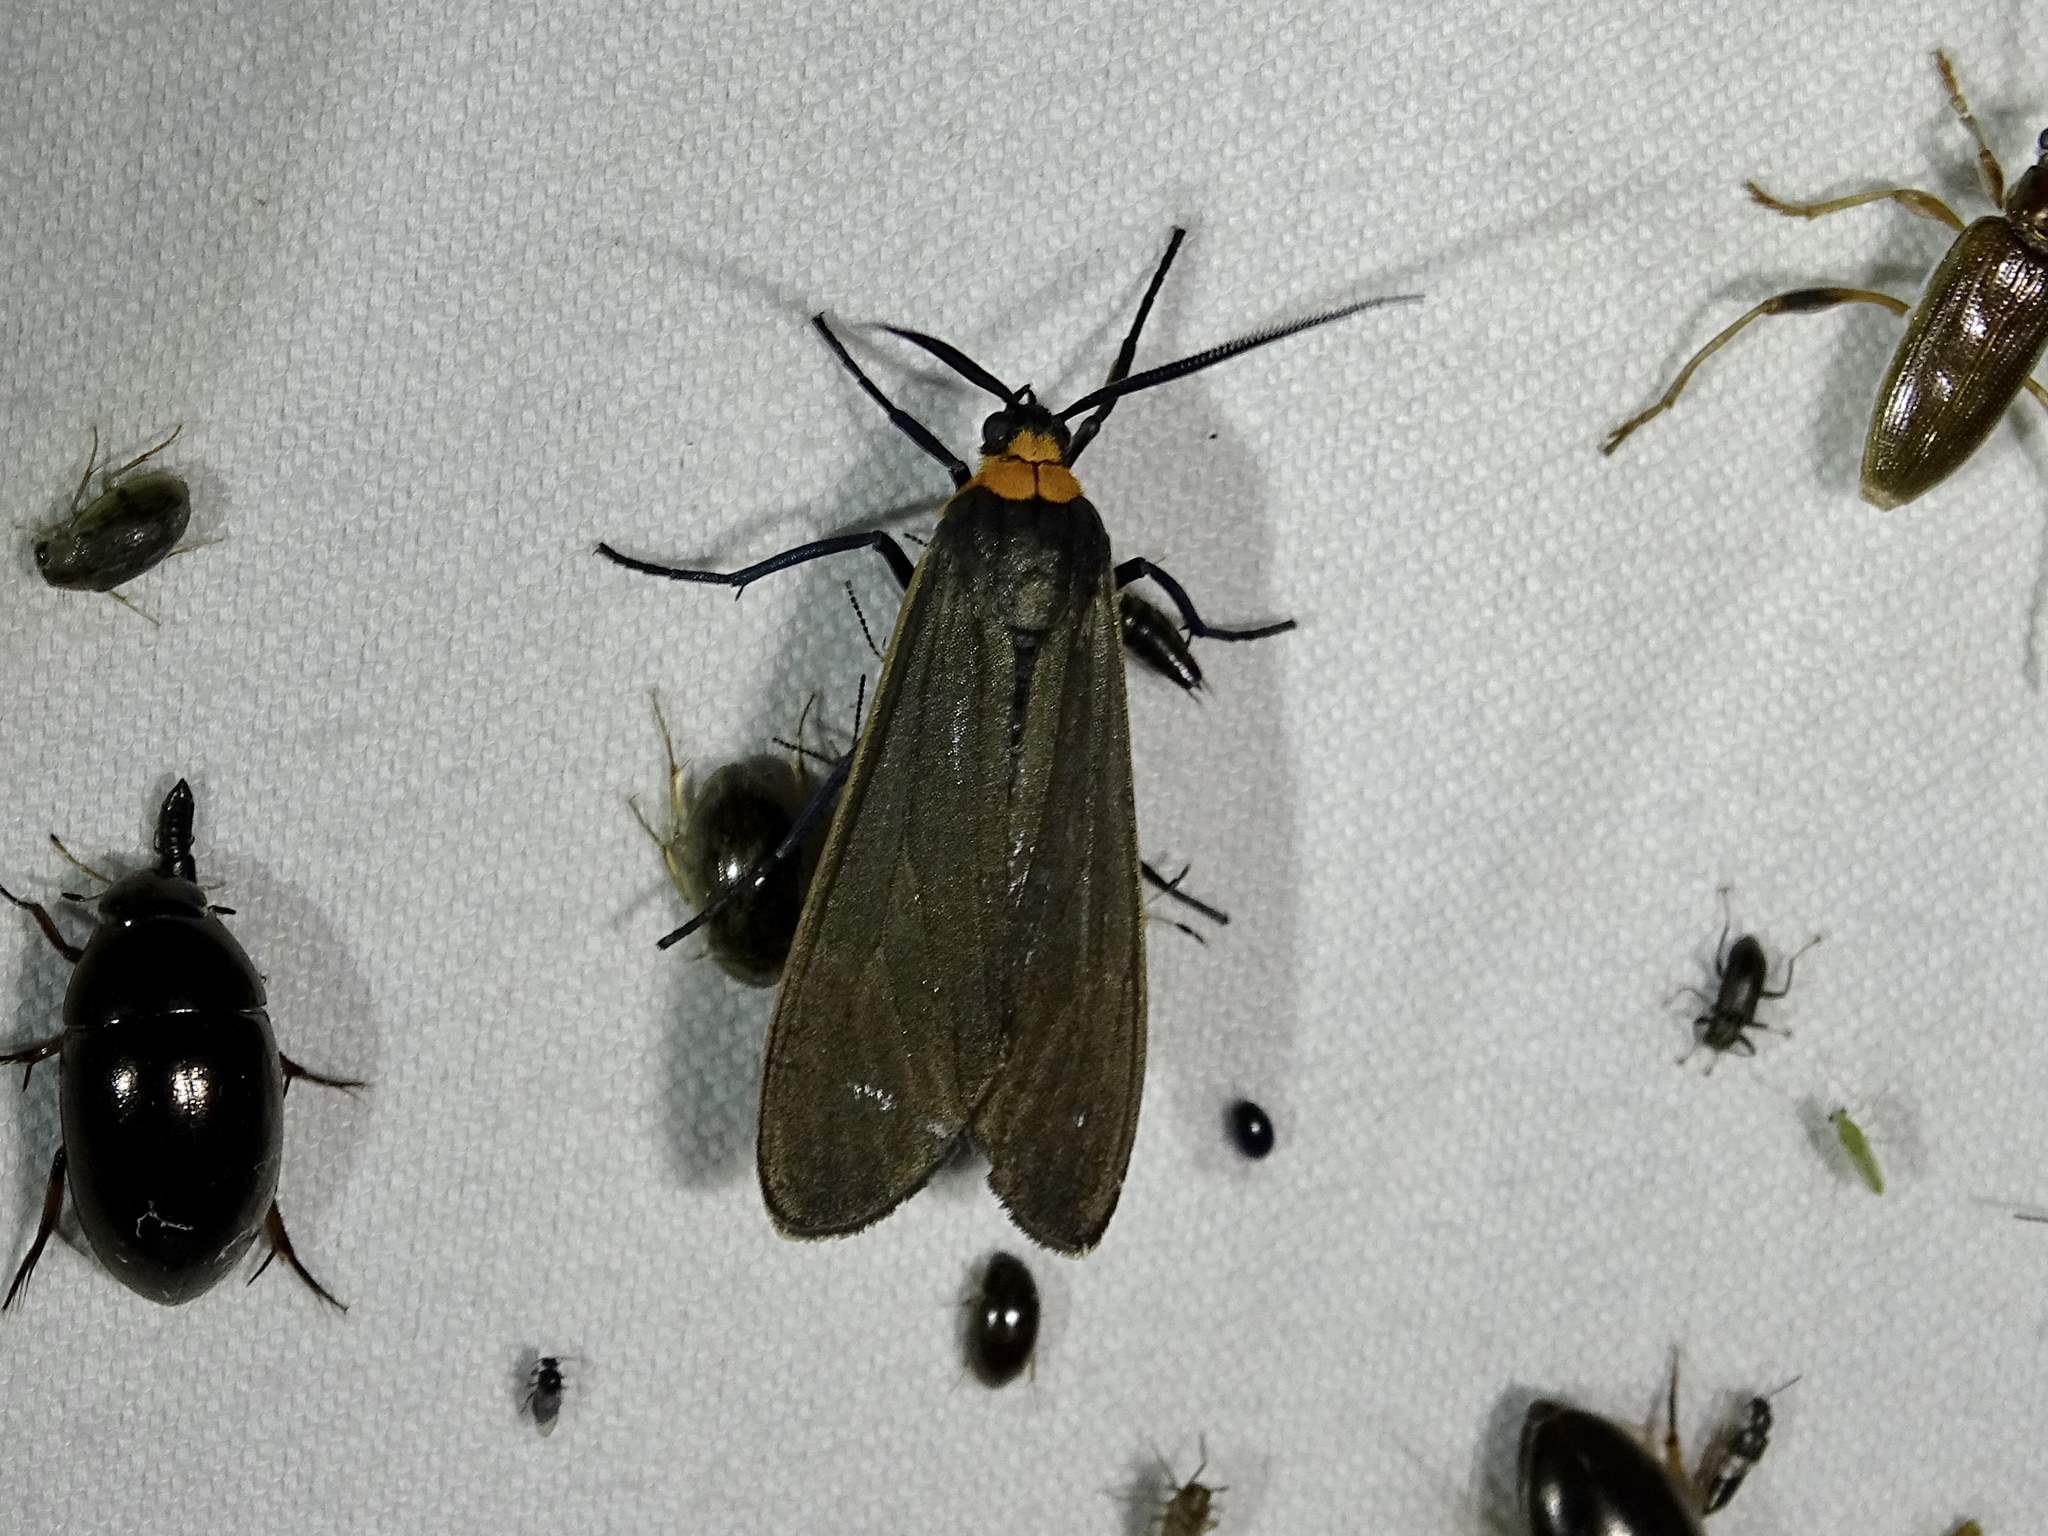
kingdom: Animalia
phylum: Arthropoda
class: Insecta
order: Lepidoptera
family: Erebidae
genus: Cisseps
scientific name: Cisseps fulvicollis
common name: Yellow-collared scape moth
